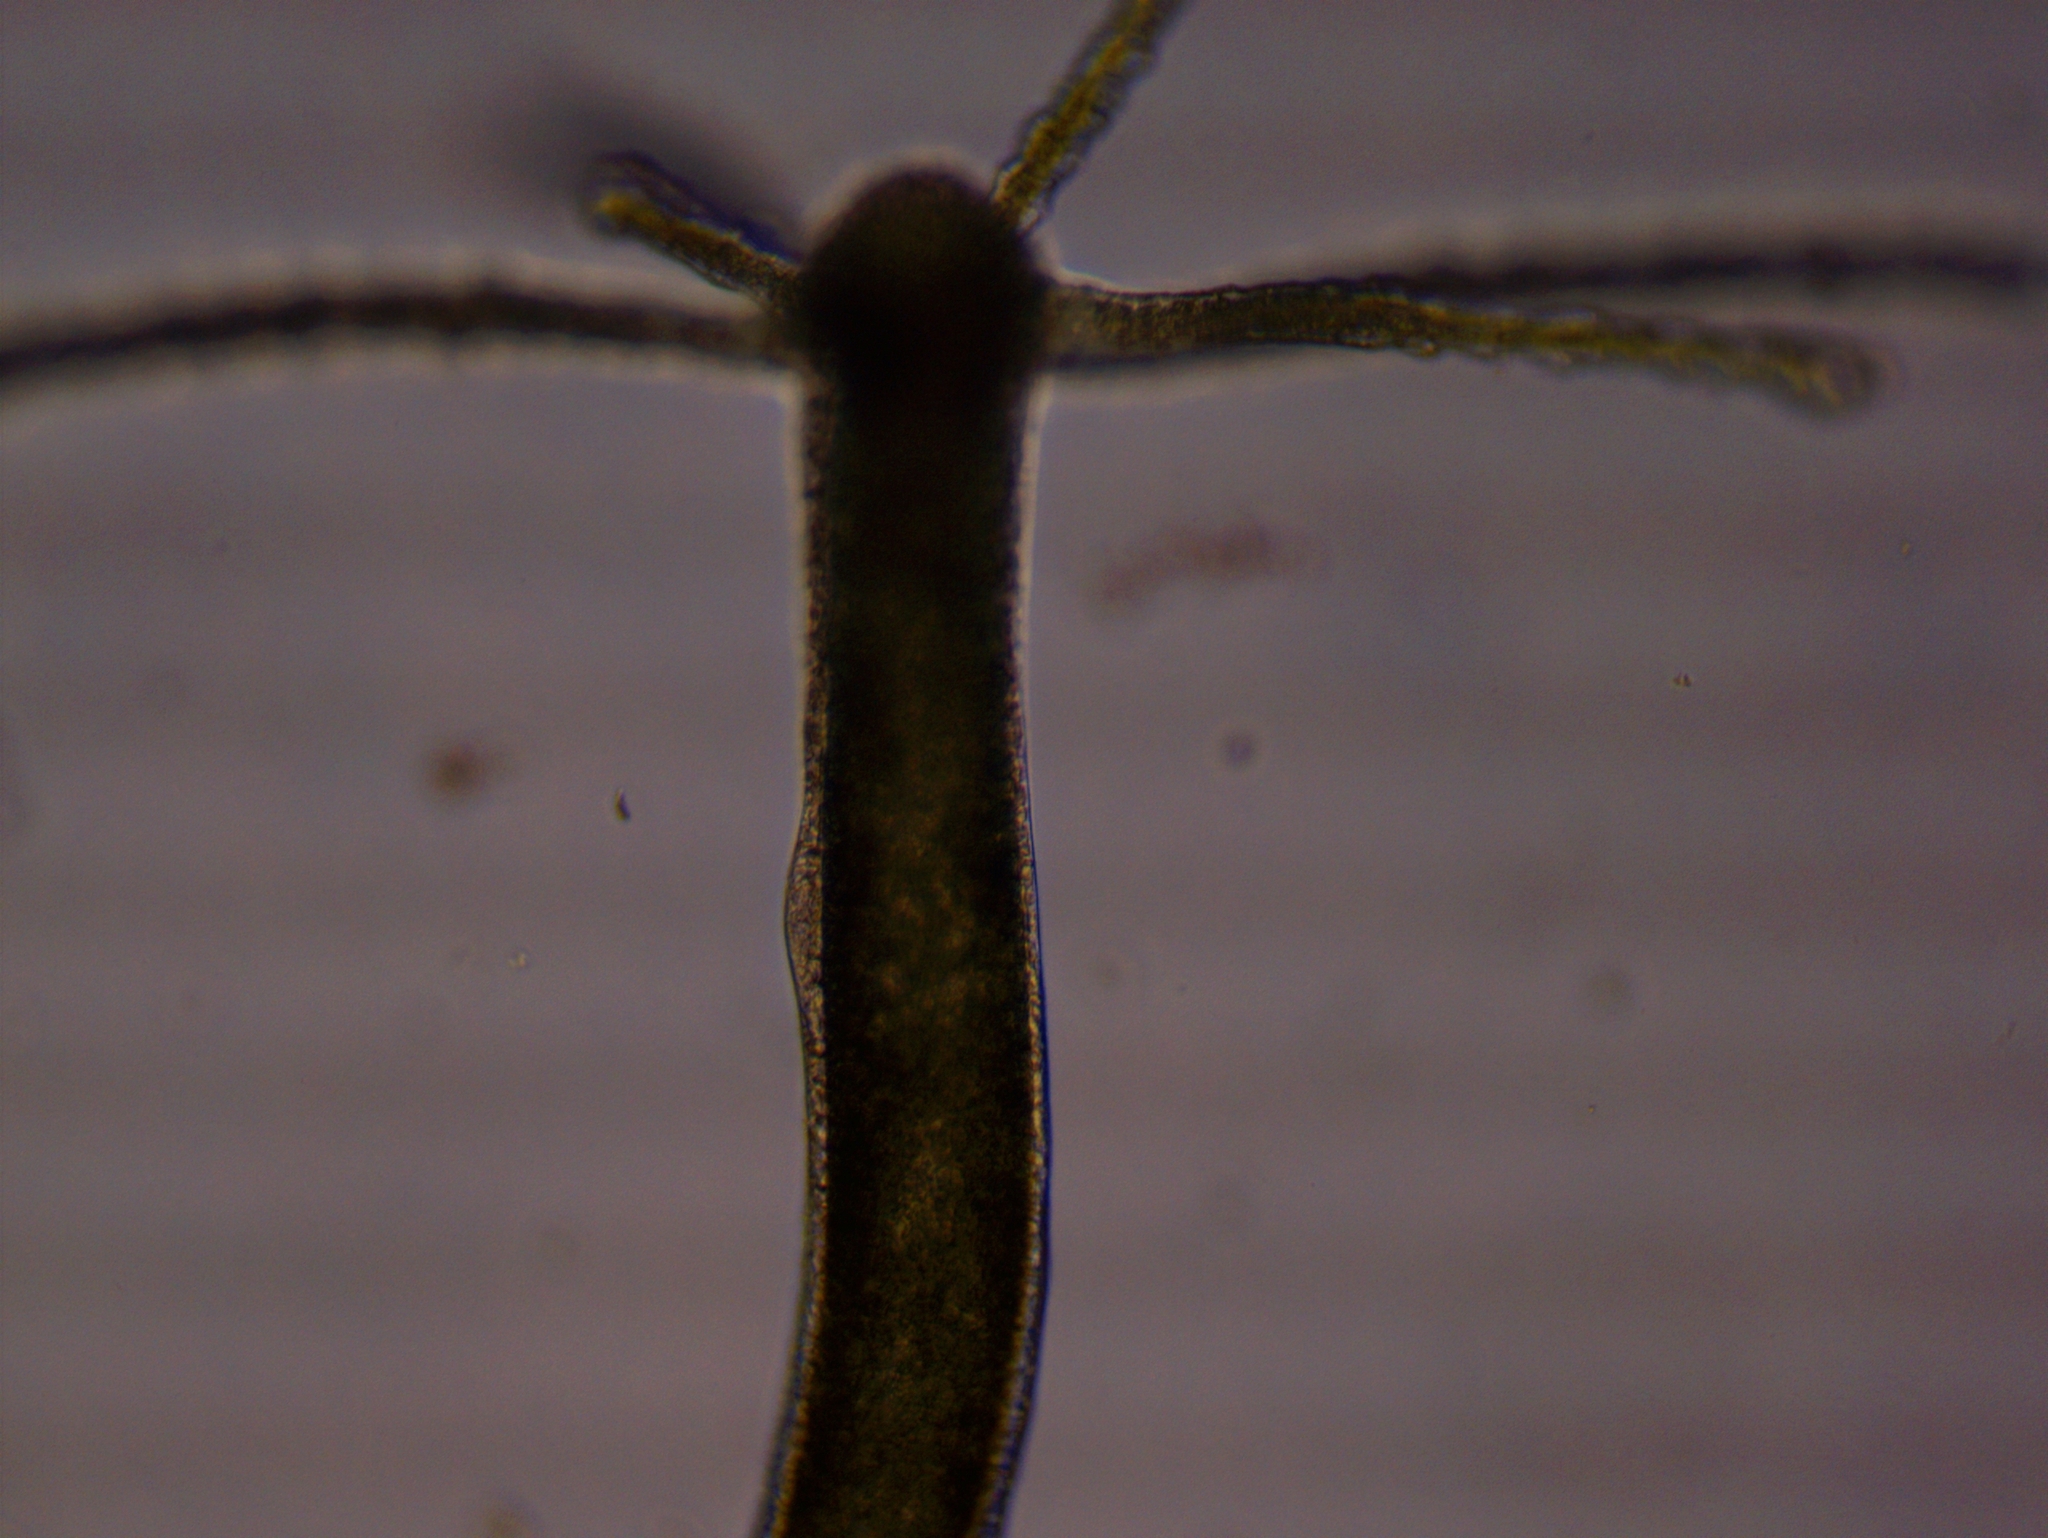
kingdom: Animalia
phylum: Cnidaria
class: Hydrozoa
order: Anthoathecata
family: Hydridae
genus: Hydra
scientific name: Hydra viridissima
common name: Green hydra
